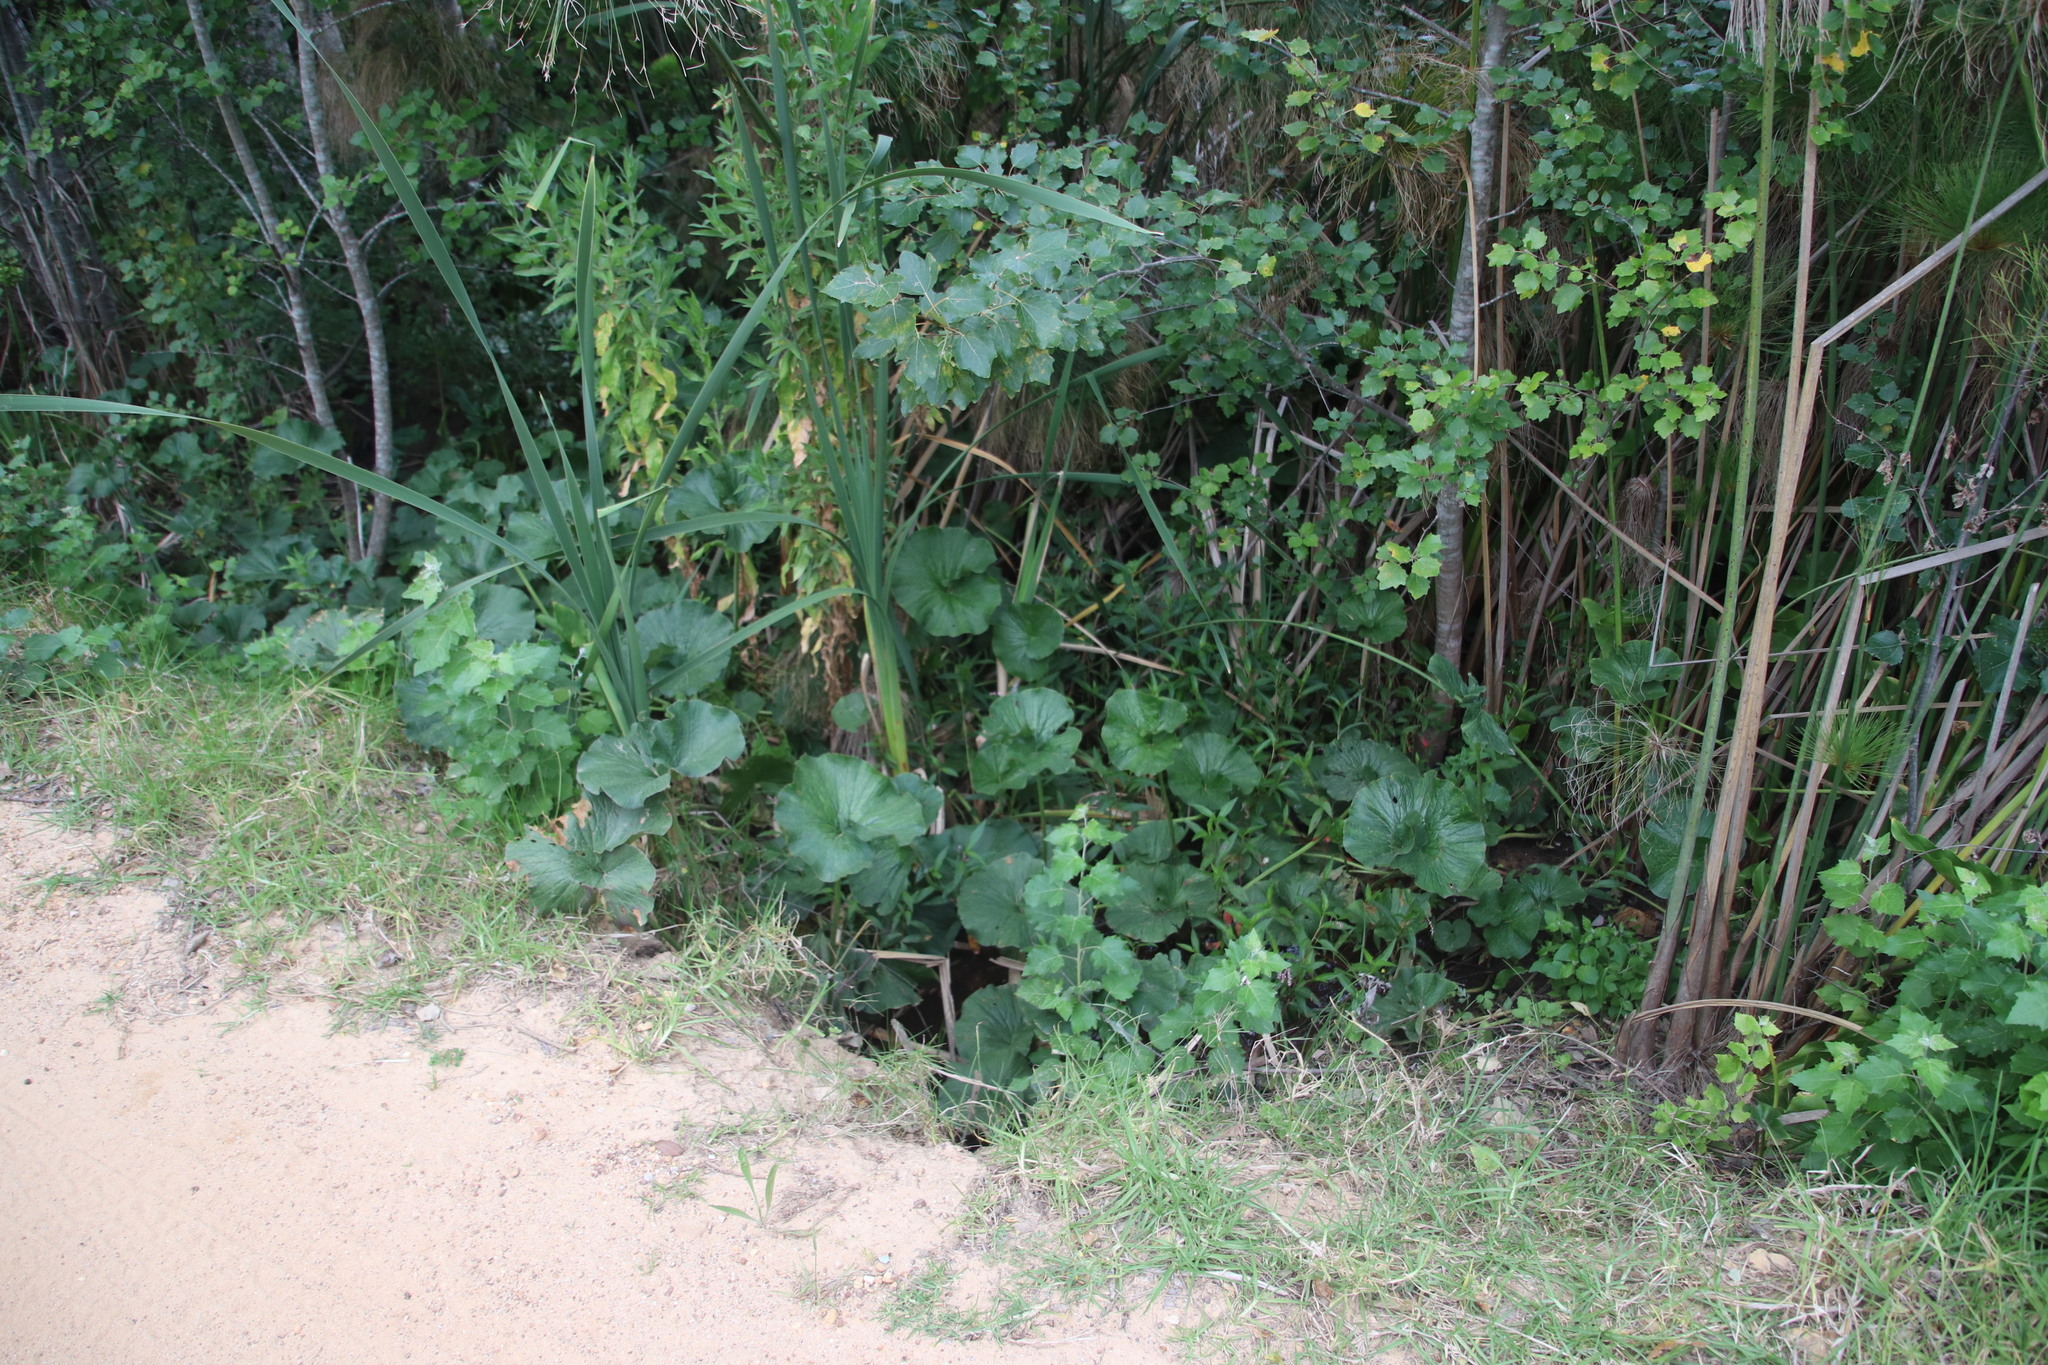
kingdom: Plantae
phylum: Tracheophyta
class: Magnoliopsida
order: Gunnerales
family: Gunneraceae
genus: Gunnera
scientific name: Gunnera perpensa
